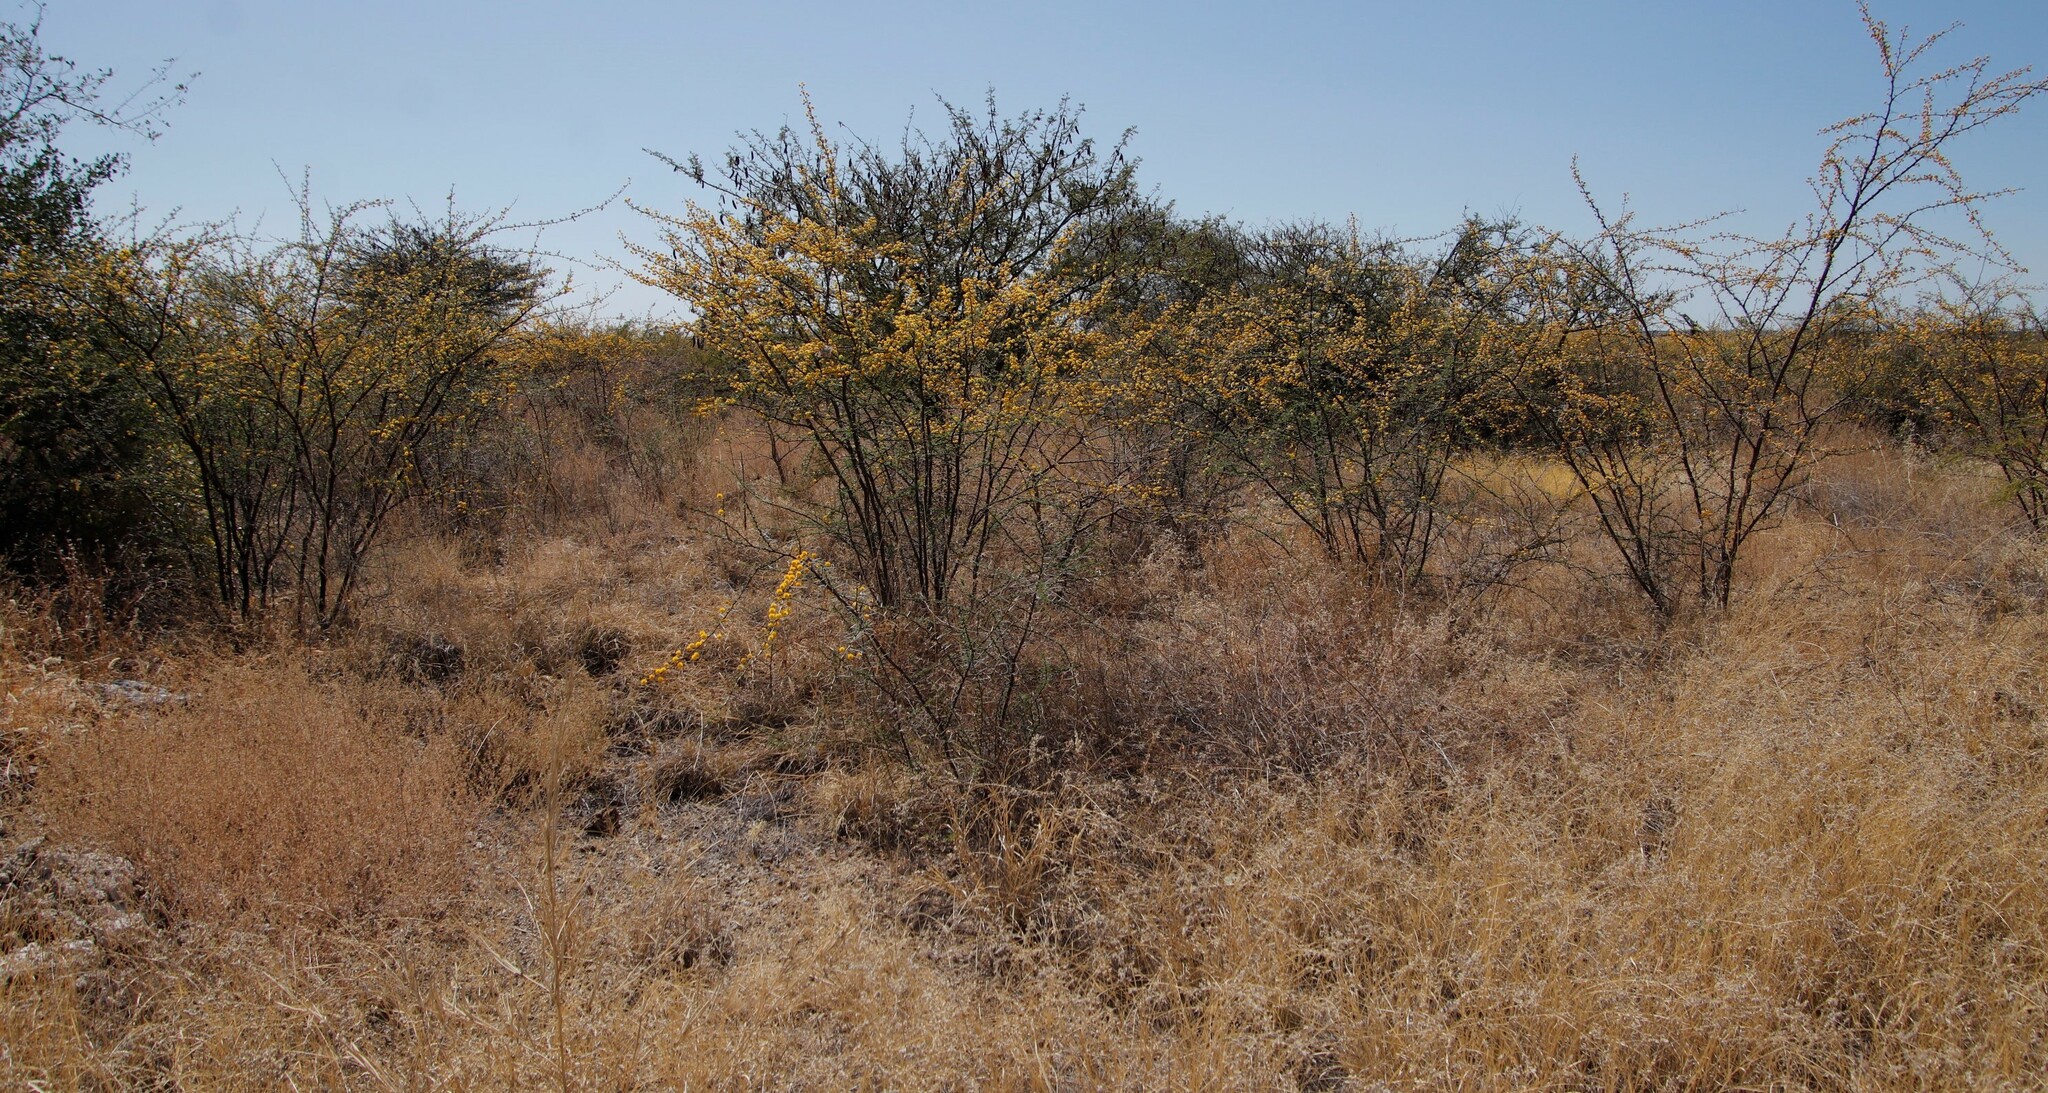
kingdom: Plantae
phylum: Tracheophyta
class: Magnoliopsida
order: Fabales
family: Fabaceae
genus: Vachellia
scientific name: Vachellia nebrownii
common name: Water acacia
